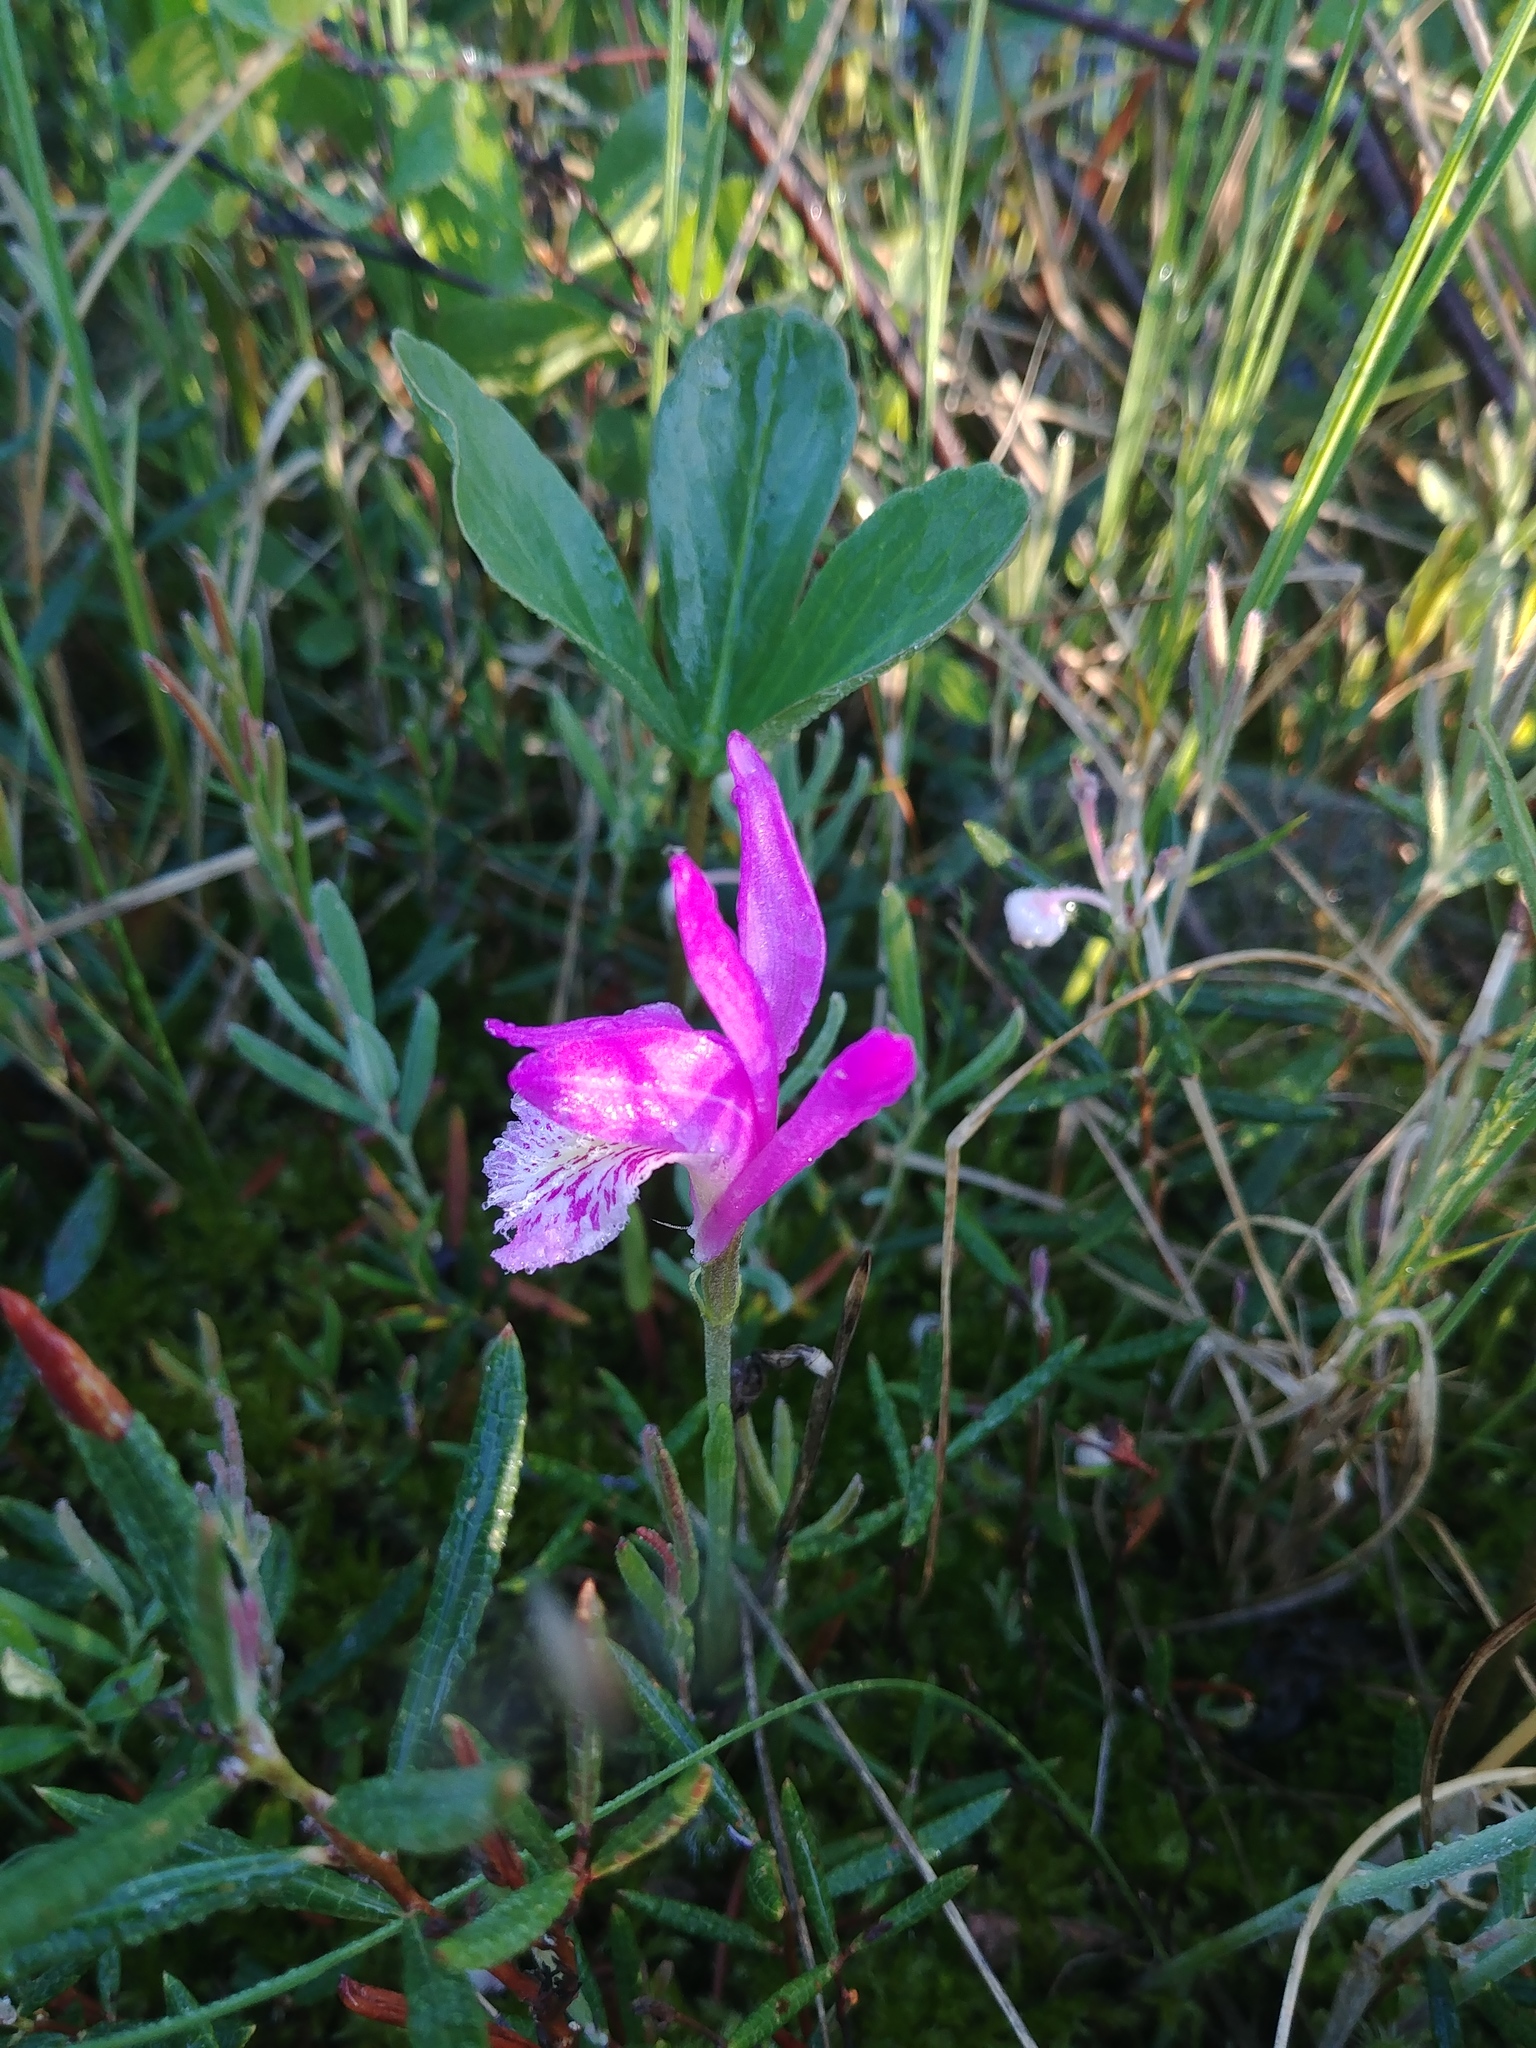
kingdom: Plantae
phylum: Tracheophyta
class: Liliopsida
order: Asparagales
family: Orchidaceae
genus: Arethusa
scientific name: Arethusa bulbosa
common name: Arethusa
